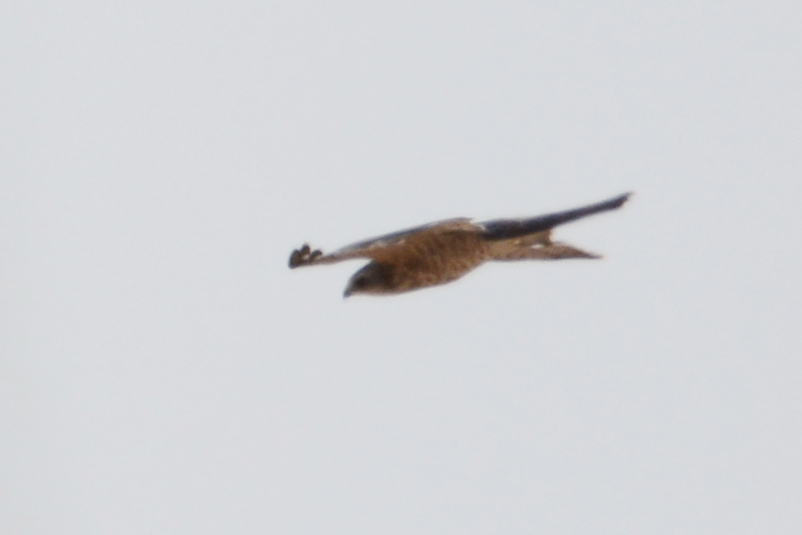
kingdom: Animalia
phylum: Chordata
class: Aves
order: Accipitriformes
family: Accipitridae
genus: Accipiter
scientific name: Accipiter brevipes
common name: Levant sparrowhawk
